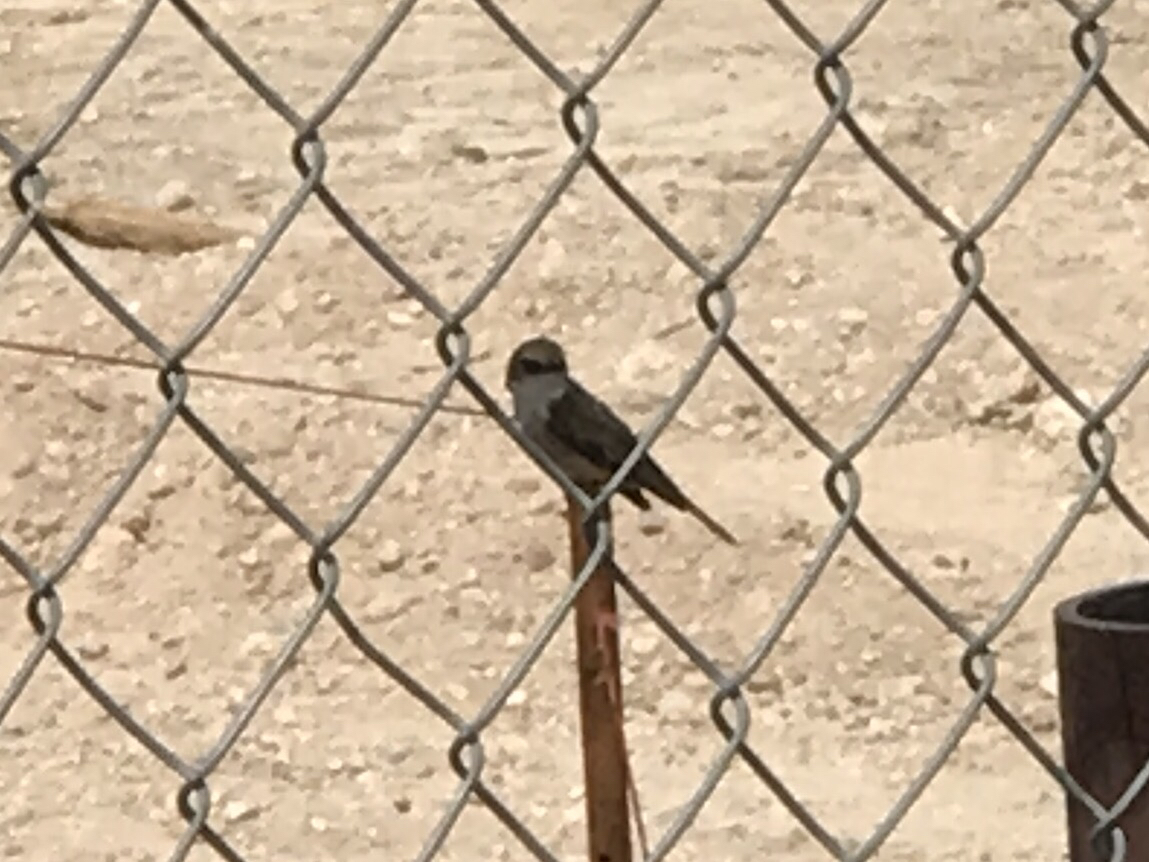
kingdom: Animalia
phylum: Chordata
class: Aves
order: Passeriformes
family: Tyrannidae
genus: Pyrocephalus
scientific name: Pyrocephalus rubinus
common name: Vermilion flycatcher
